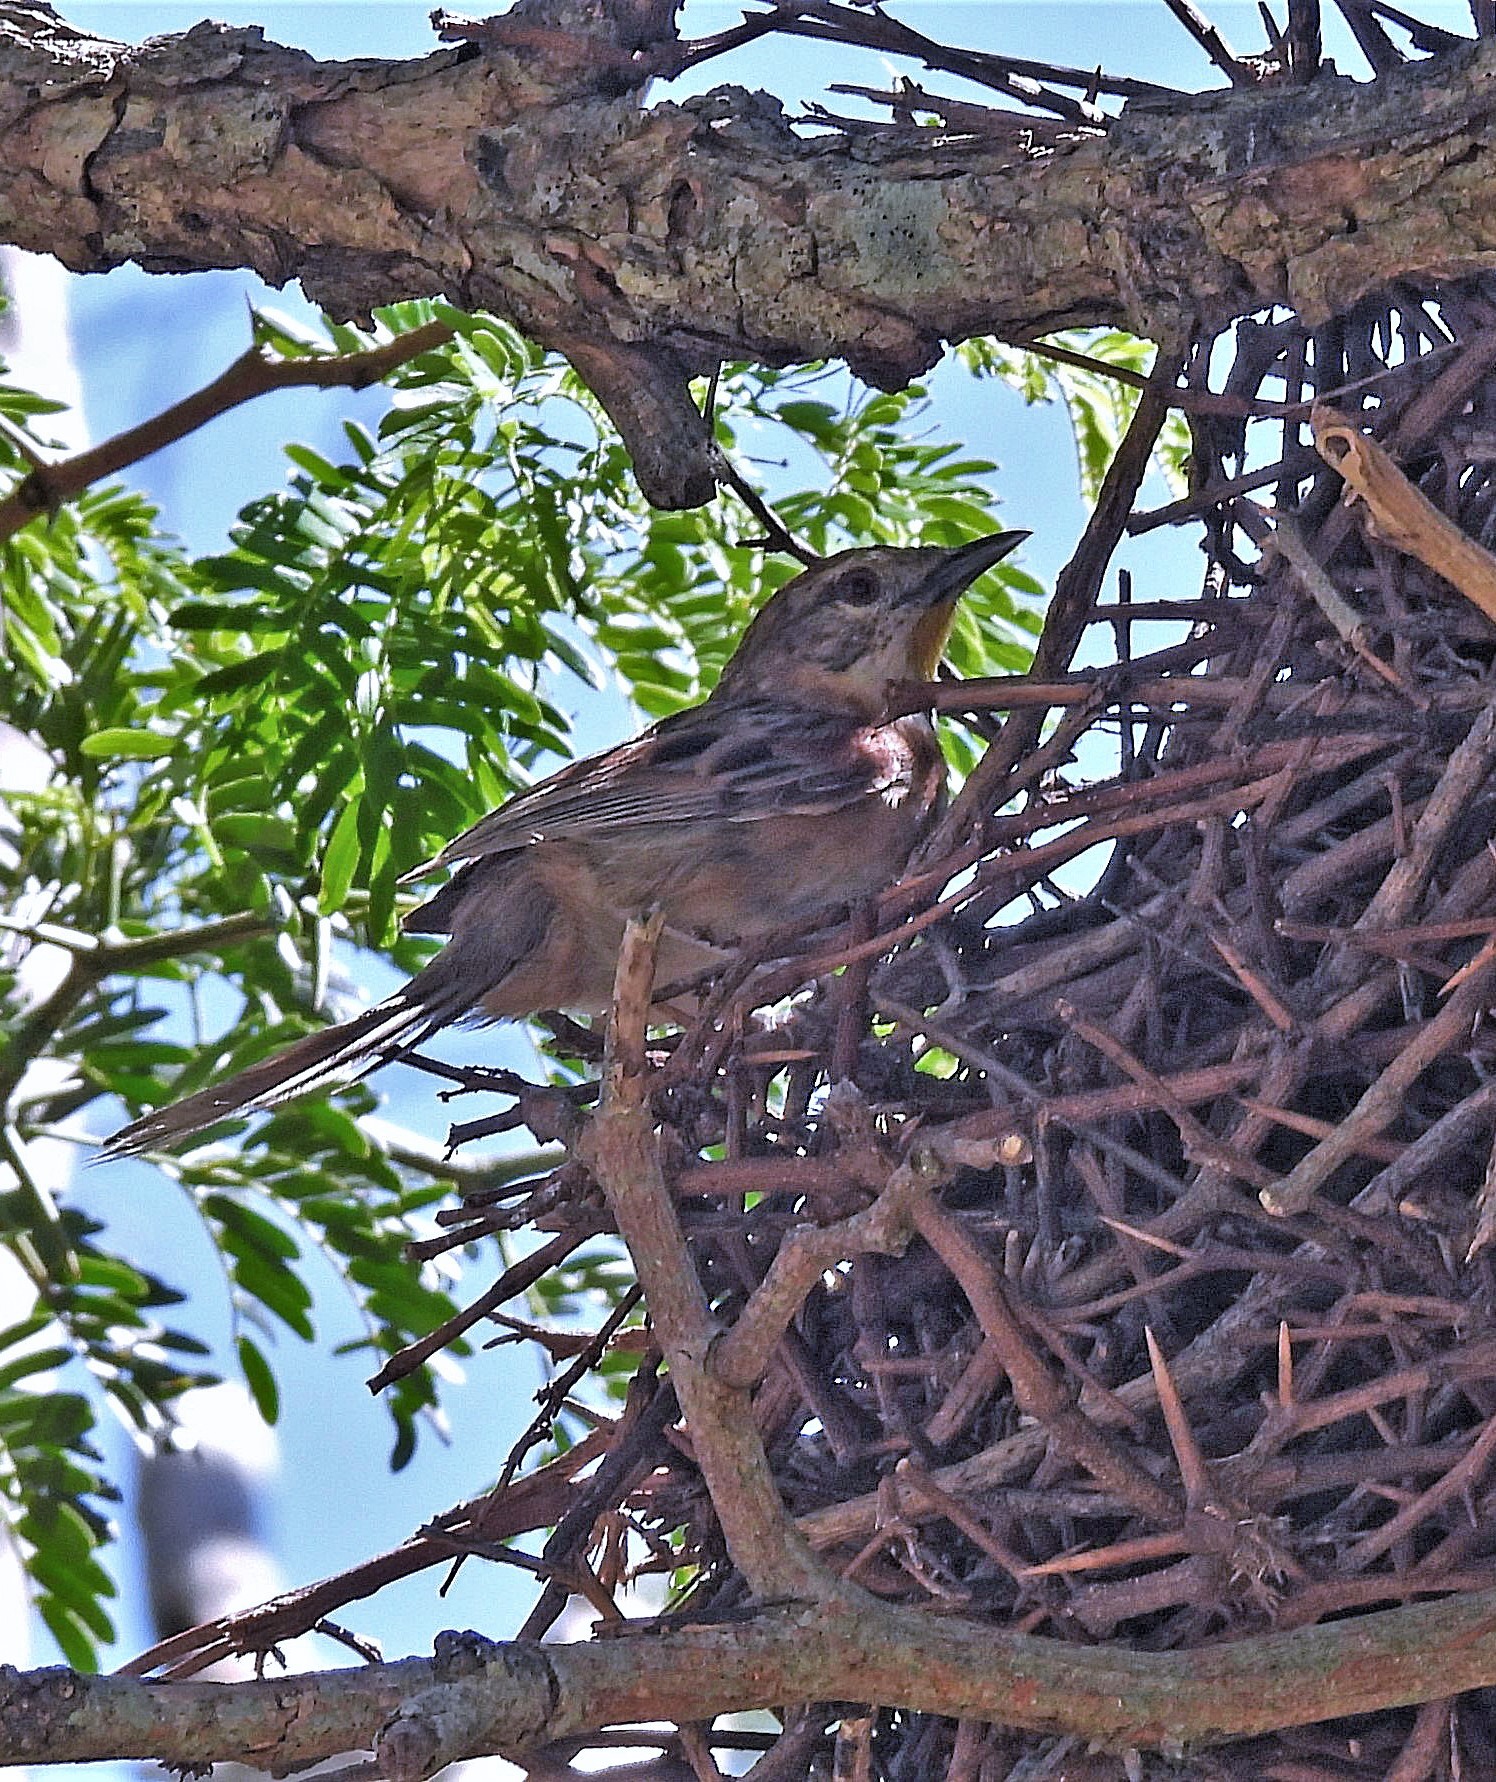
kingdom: Animalia
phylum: Chordata
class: Aves
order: Passeriformes
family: Furnariidae
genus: Schoeniophylax
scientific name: Schoeniophylax phryganophilus
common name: Chotoy spinetail
